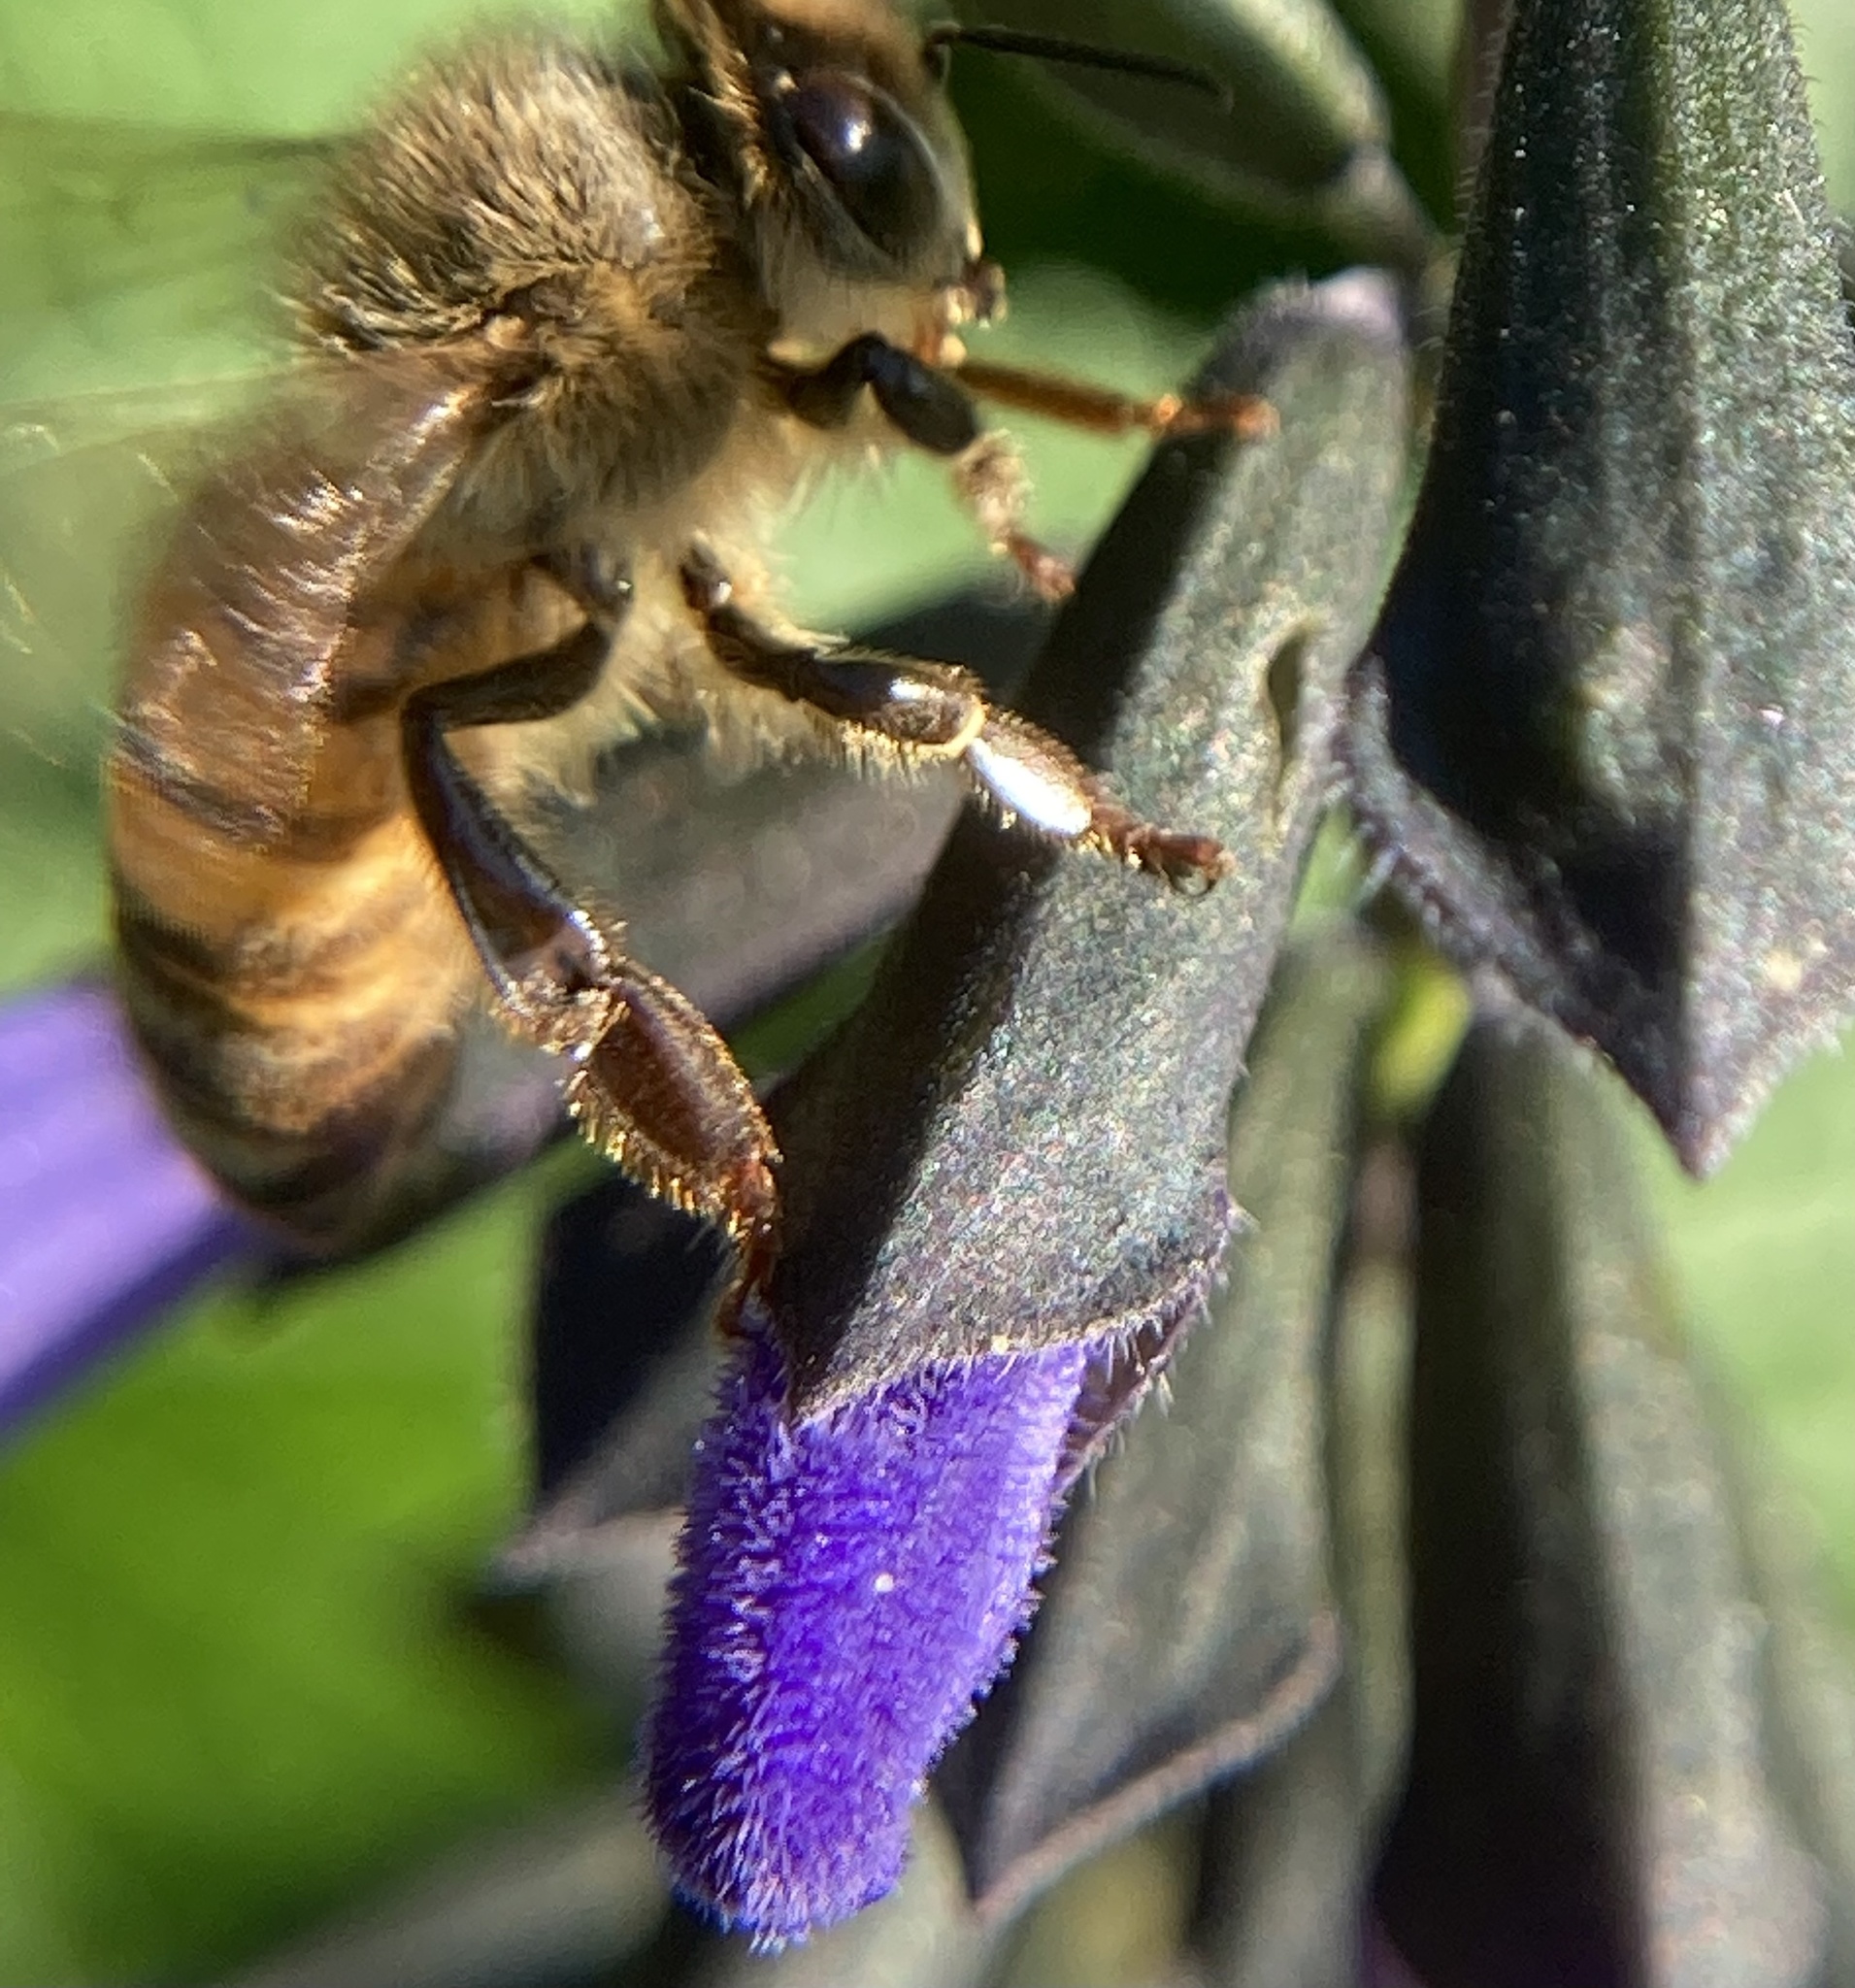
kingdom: Animalia
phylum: Arthropoda
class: Insecta
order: Hymenoptera
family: Apidae
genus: Apis
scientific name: Apis mellifera
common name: Honey bee
